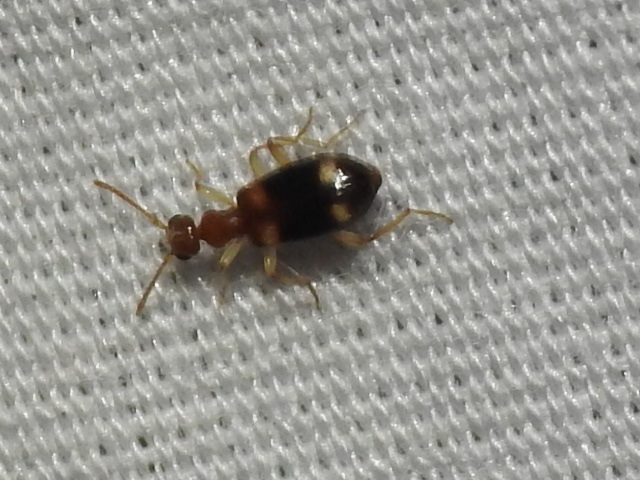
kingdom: Animalia
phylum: Arthropoda
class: Insecta
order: Coleoptera
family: Anthicidae
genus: Stricticollis
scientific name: Stricticollis tobias
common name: Two-dotted ant-like flower beetle
